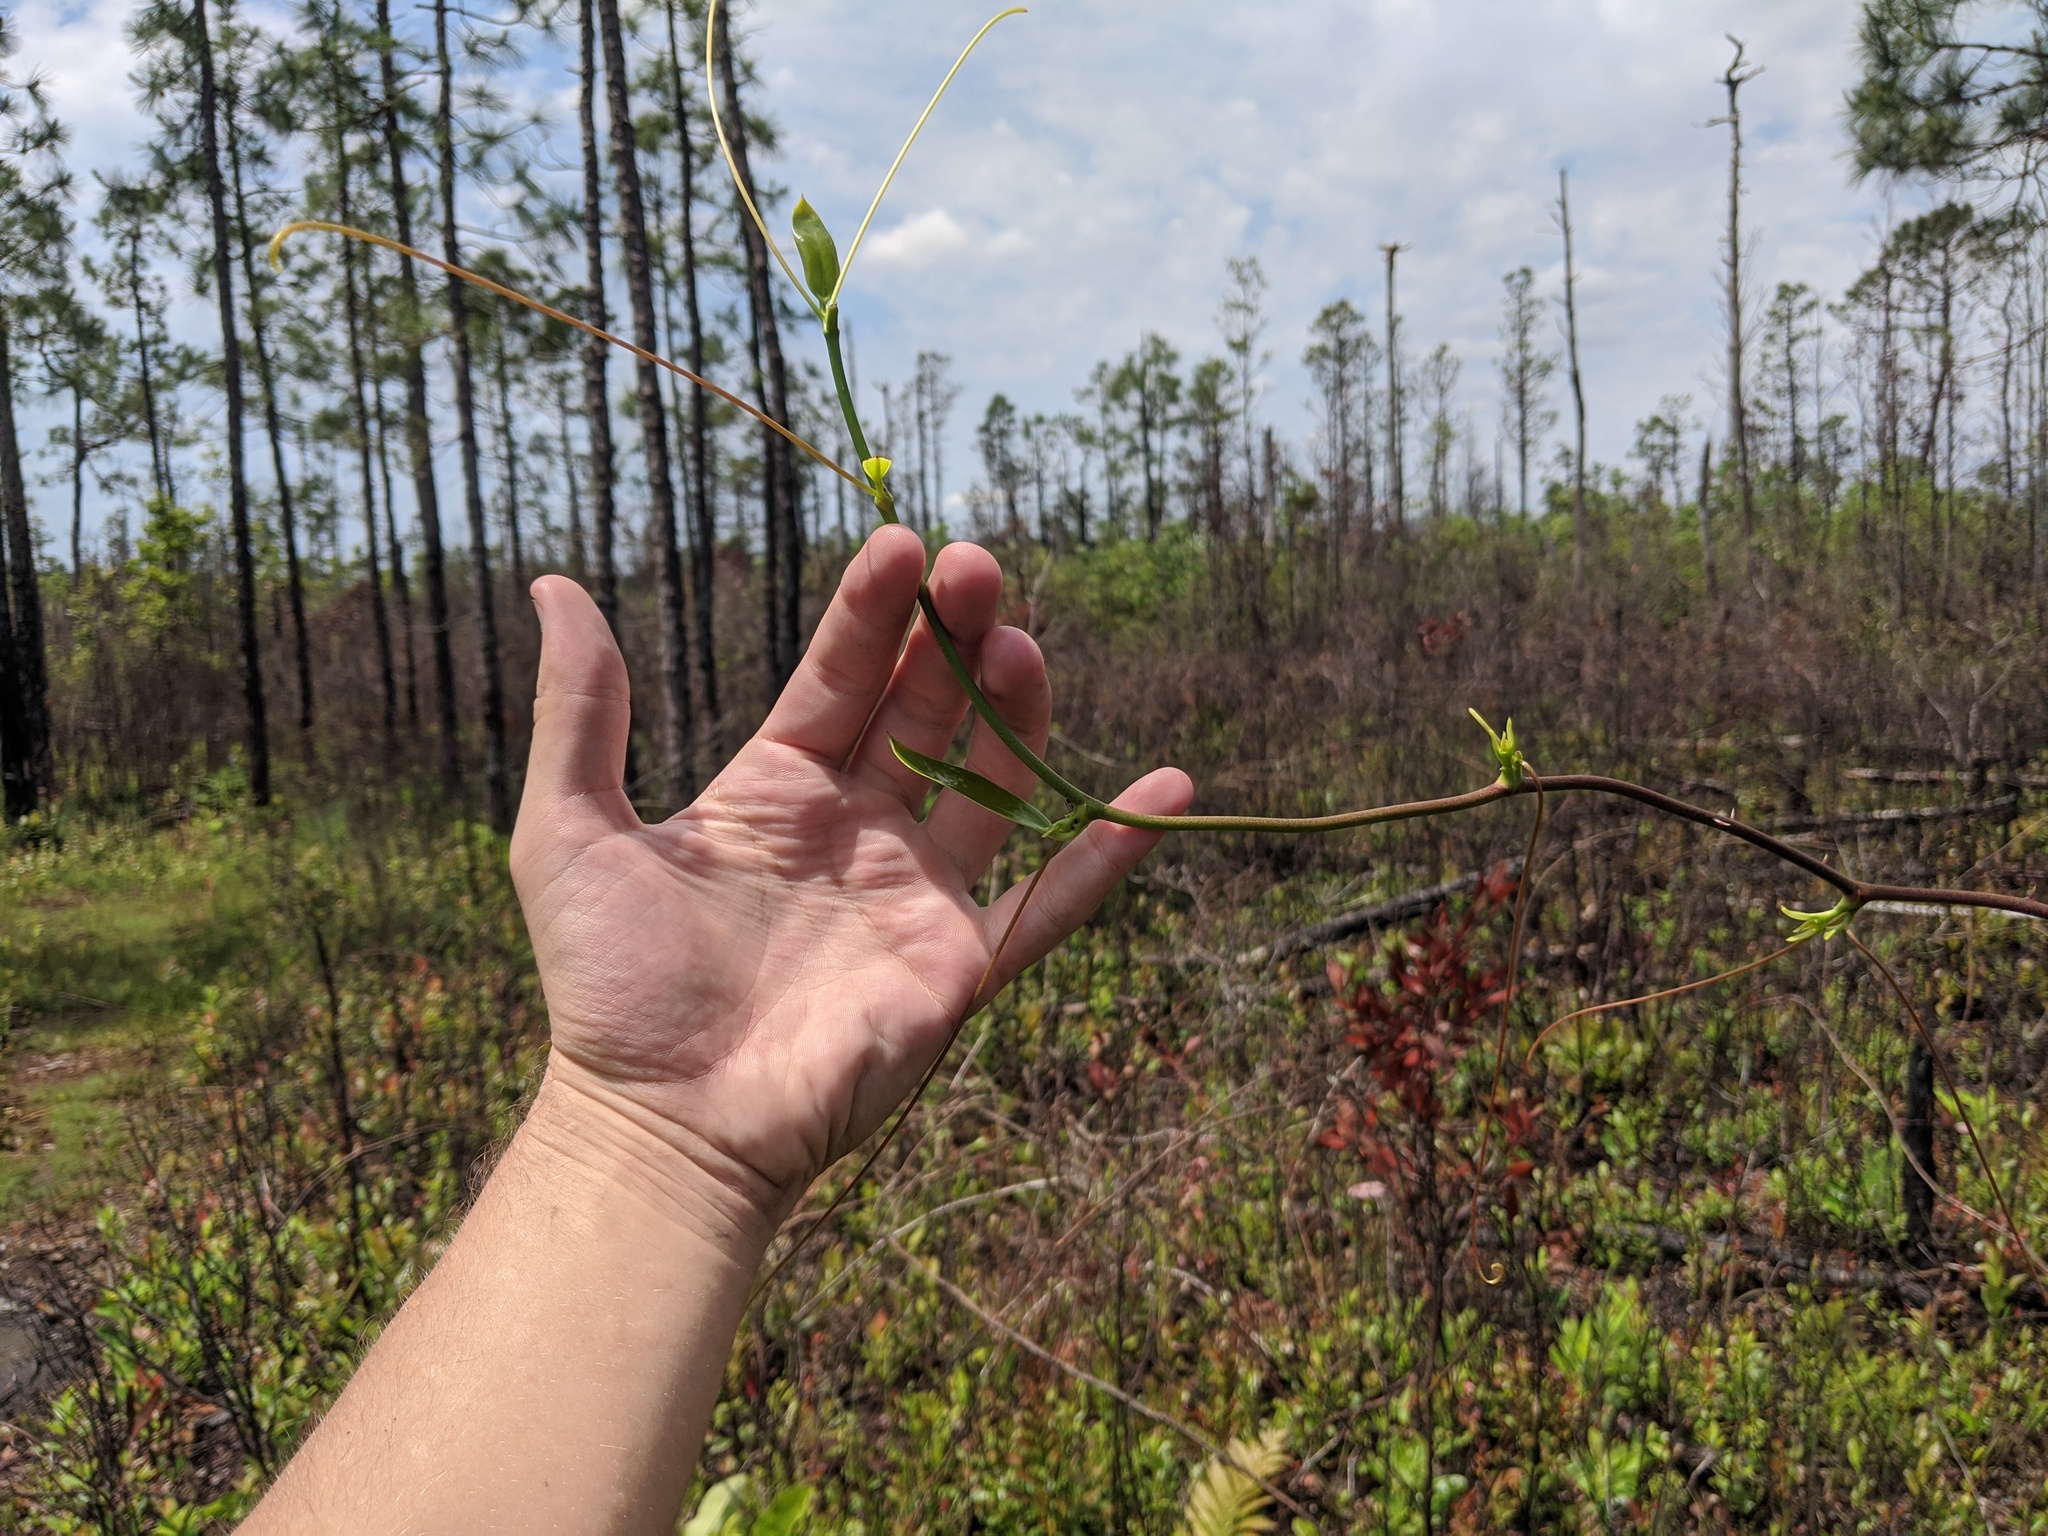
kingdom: Plantae
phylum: Tracheophyta
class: Liliopsida
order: Liliales
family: Smilacaceae
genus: Smilax
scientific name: Smilax laurifolia
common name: Bamboovine
